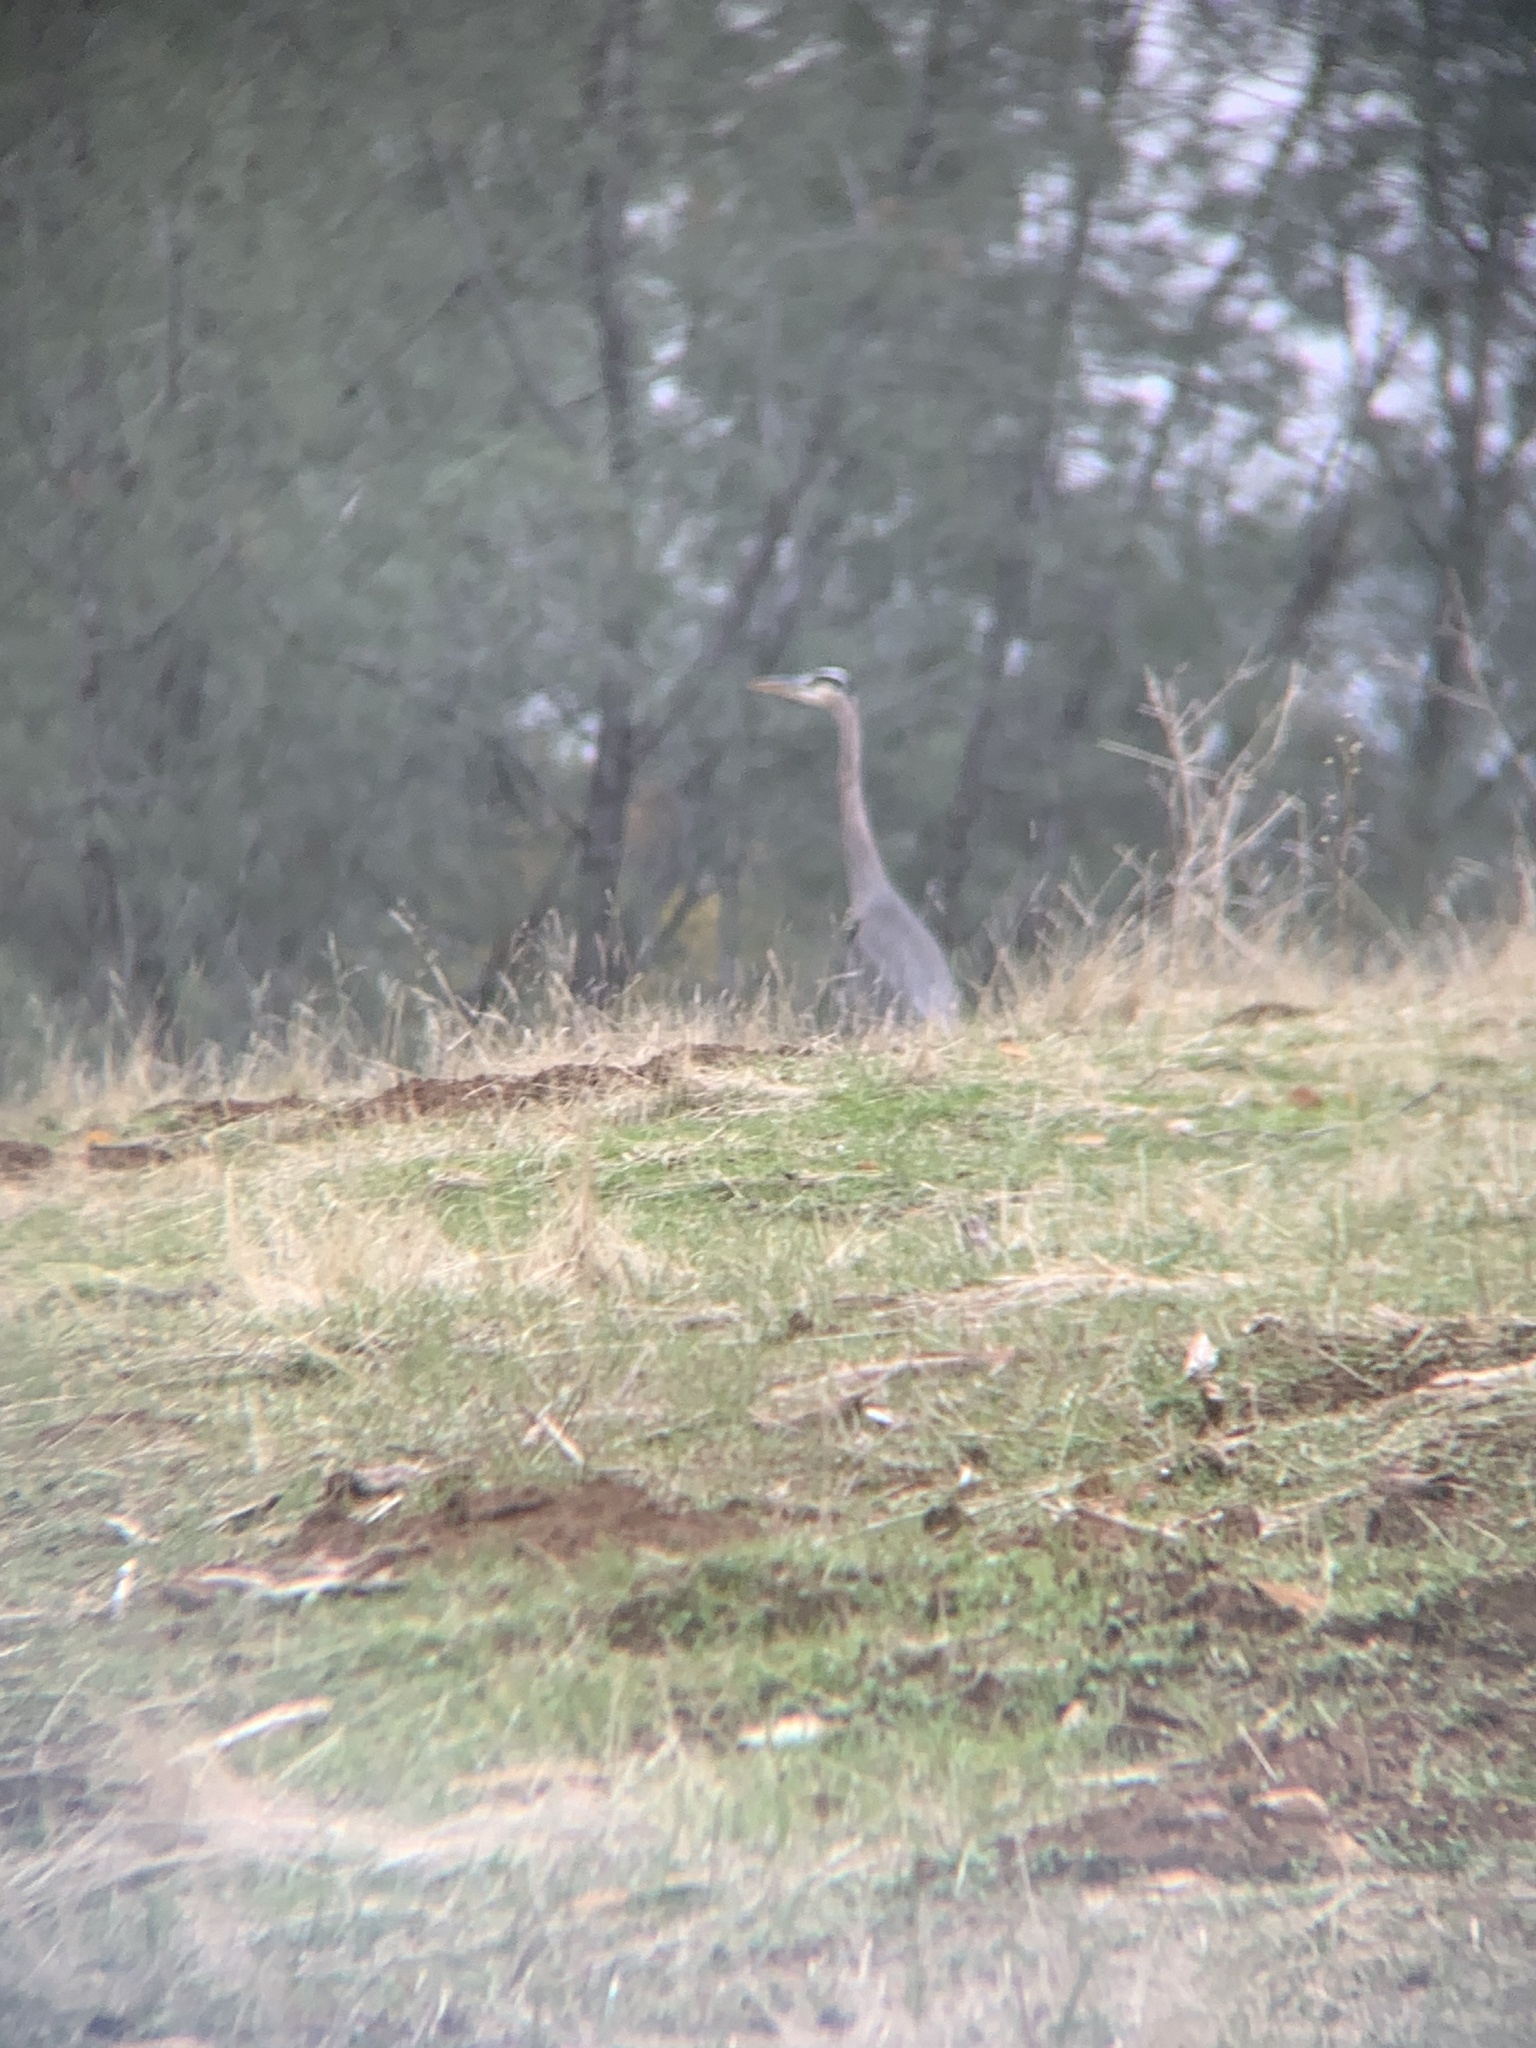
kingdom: Animalia
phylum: Chordata
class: Aves
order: Pelecaniformes
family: Ardeidae
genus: Ardea
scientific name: Ardea herodias
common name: Great blue heron
